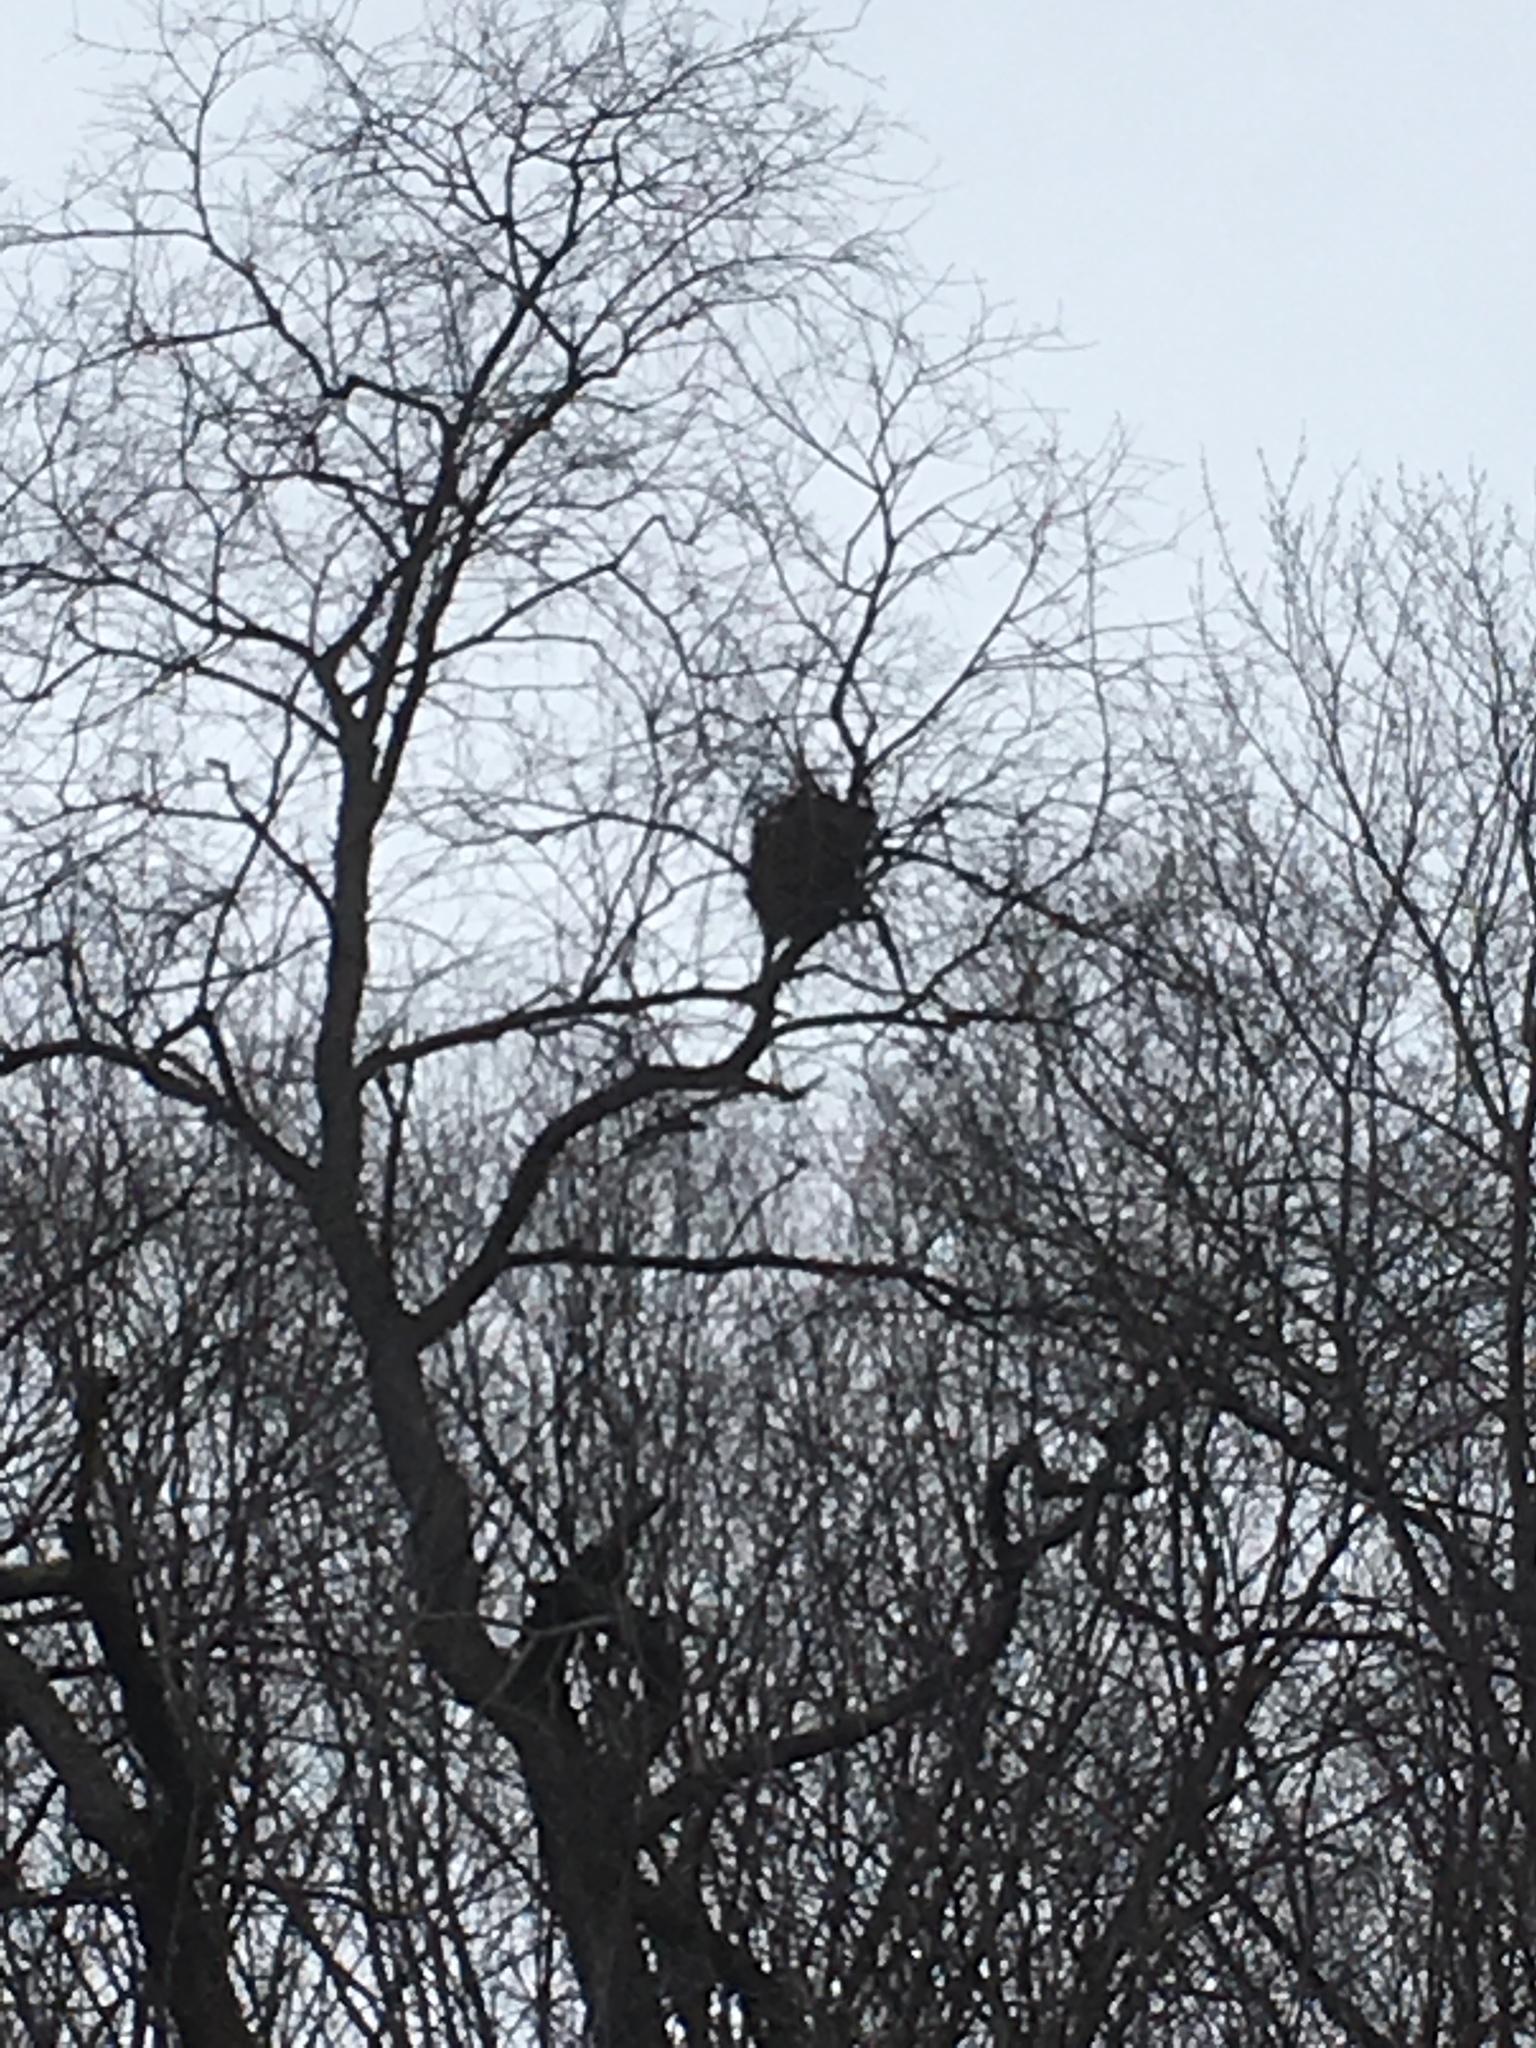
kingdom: Animalia
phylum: Chordata
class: Mammalia
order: Rodentia
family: Sciuridae
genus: Sciurus
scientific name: Sciurus carolinensis
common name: Eastern gray squirrel
